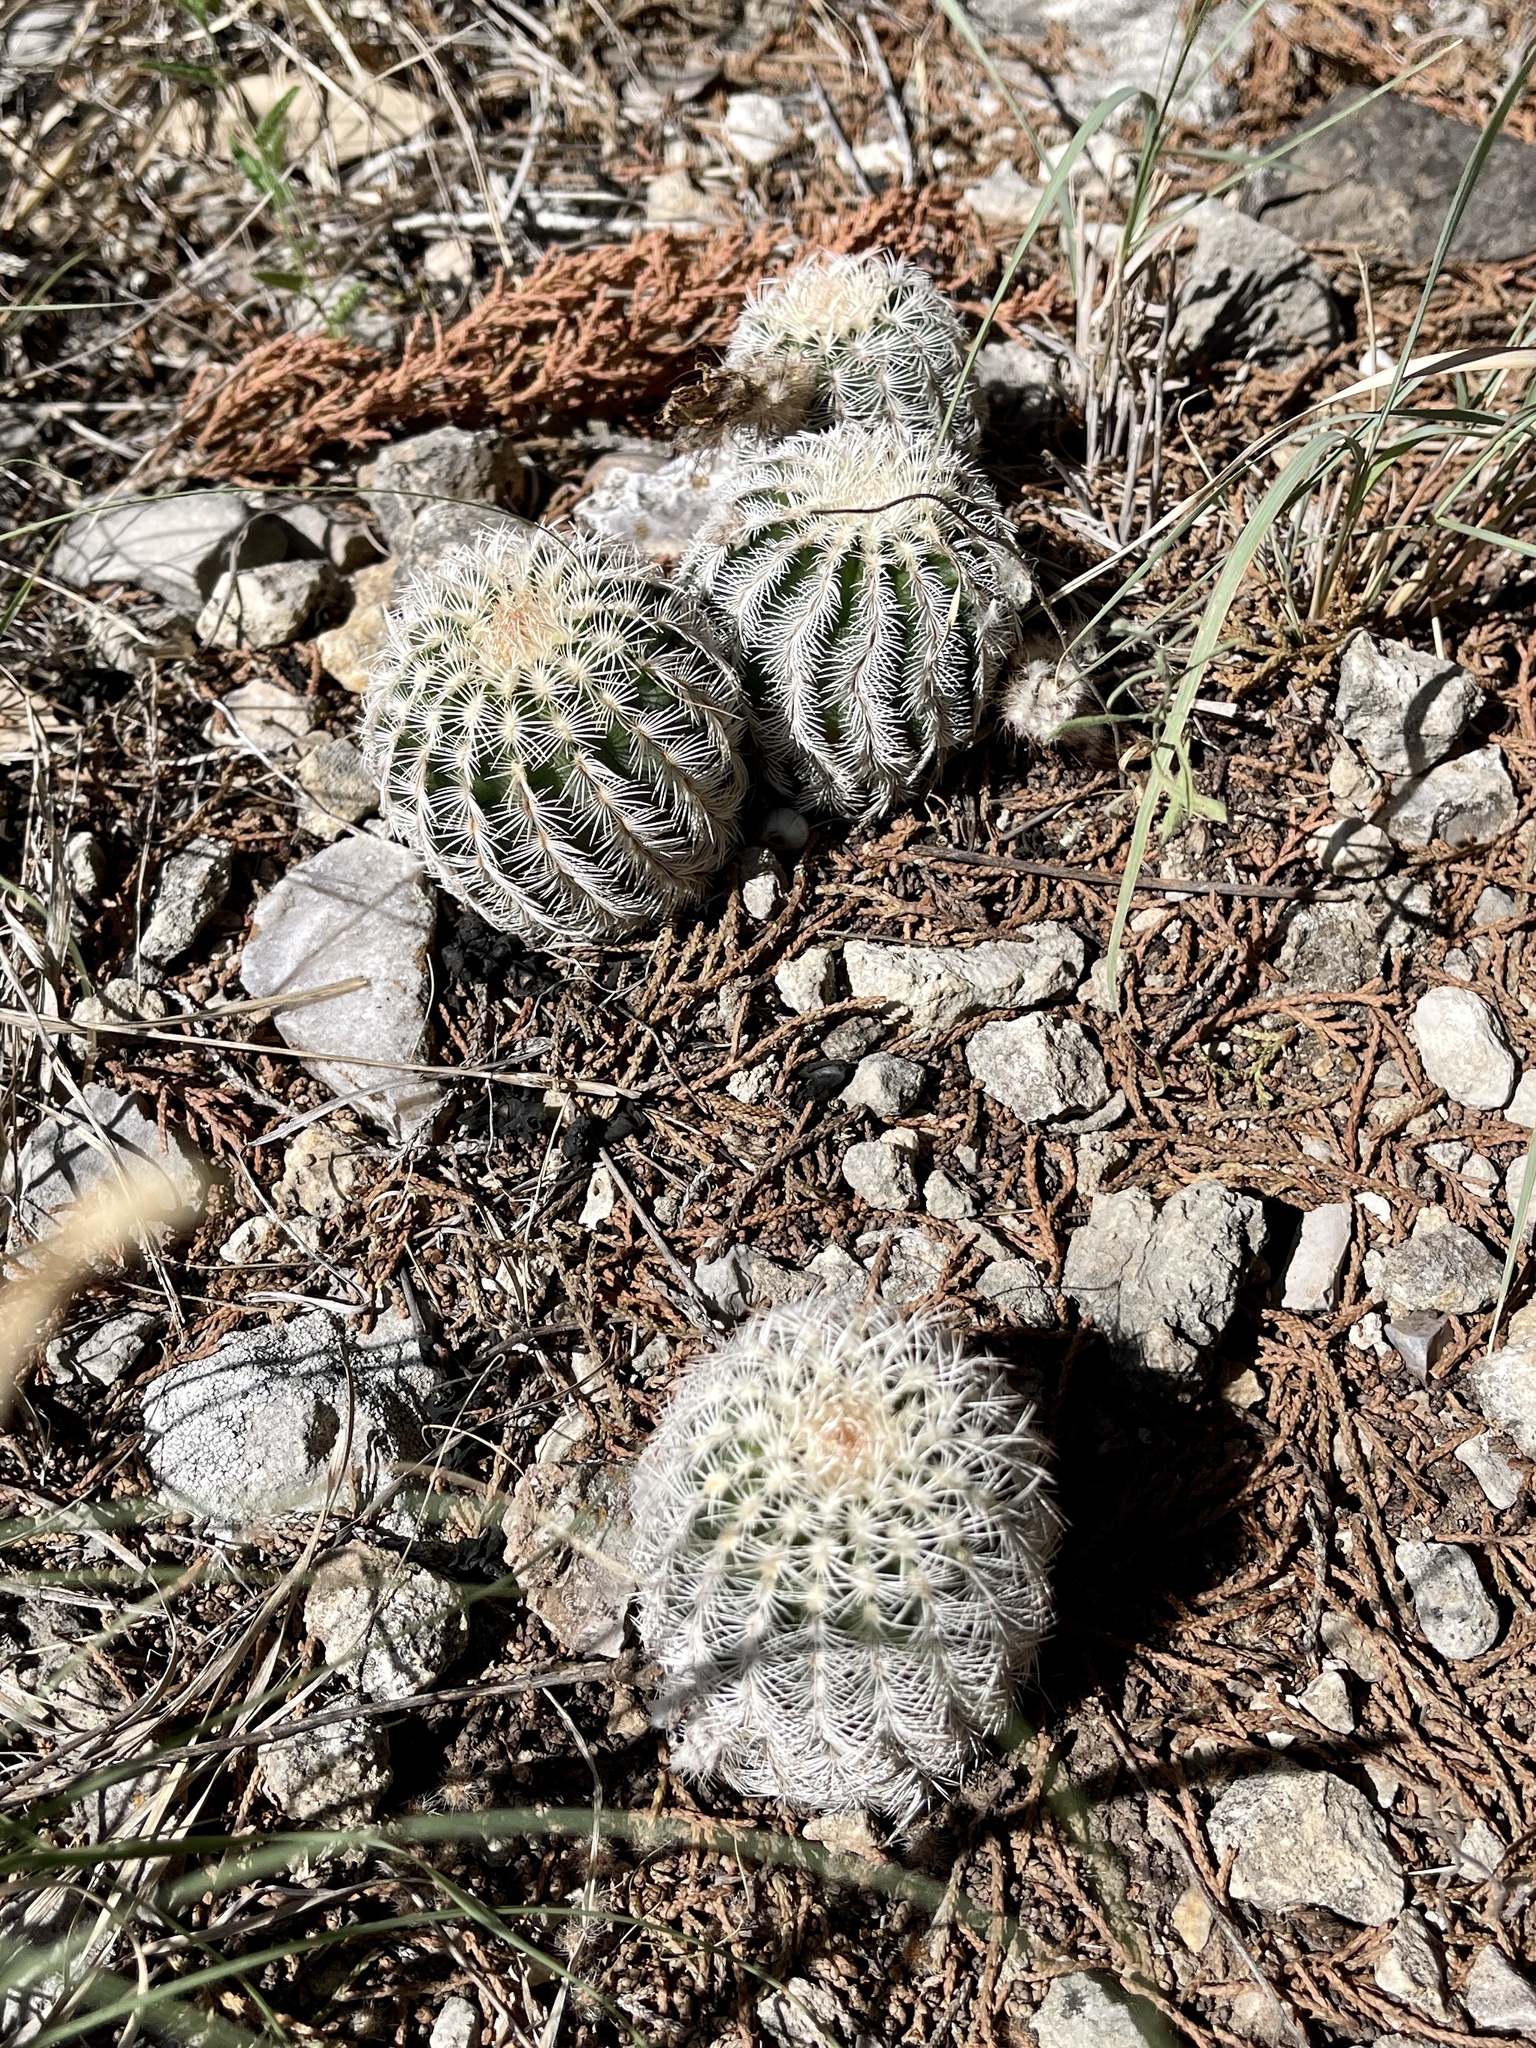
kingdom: Plantae
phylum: Tracheophyta
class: Magnoliopsida
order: Caryophyllales
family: Cactaceae
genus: Echinocereus
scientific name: Echinocereus reichenbachii
